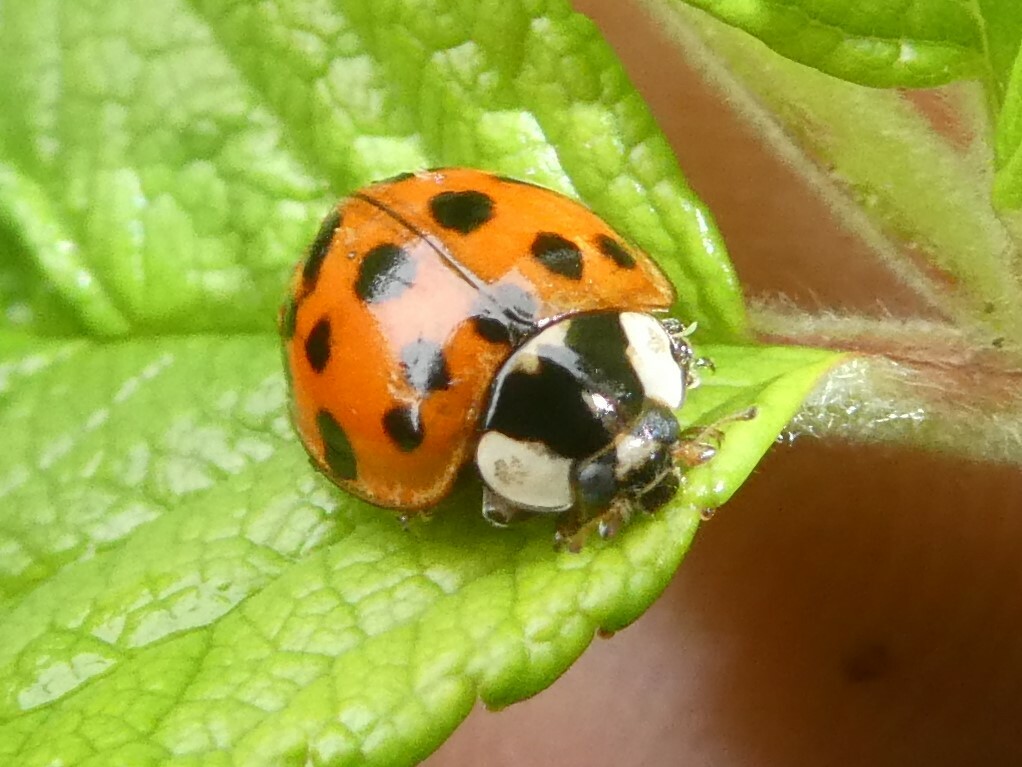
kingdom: Animalia
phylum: Arthropoda
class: Insecta
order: Coleoptera
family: Coccinellidae
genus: Harmonia
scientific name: Harmonia axyridis
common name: Harlequin ladybird
